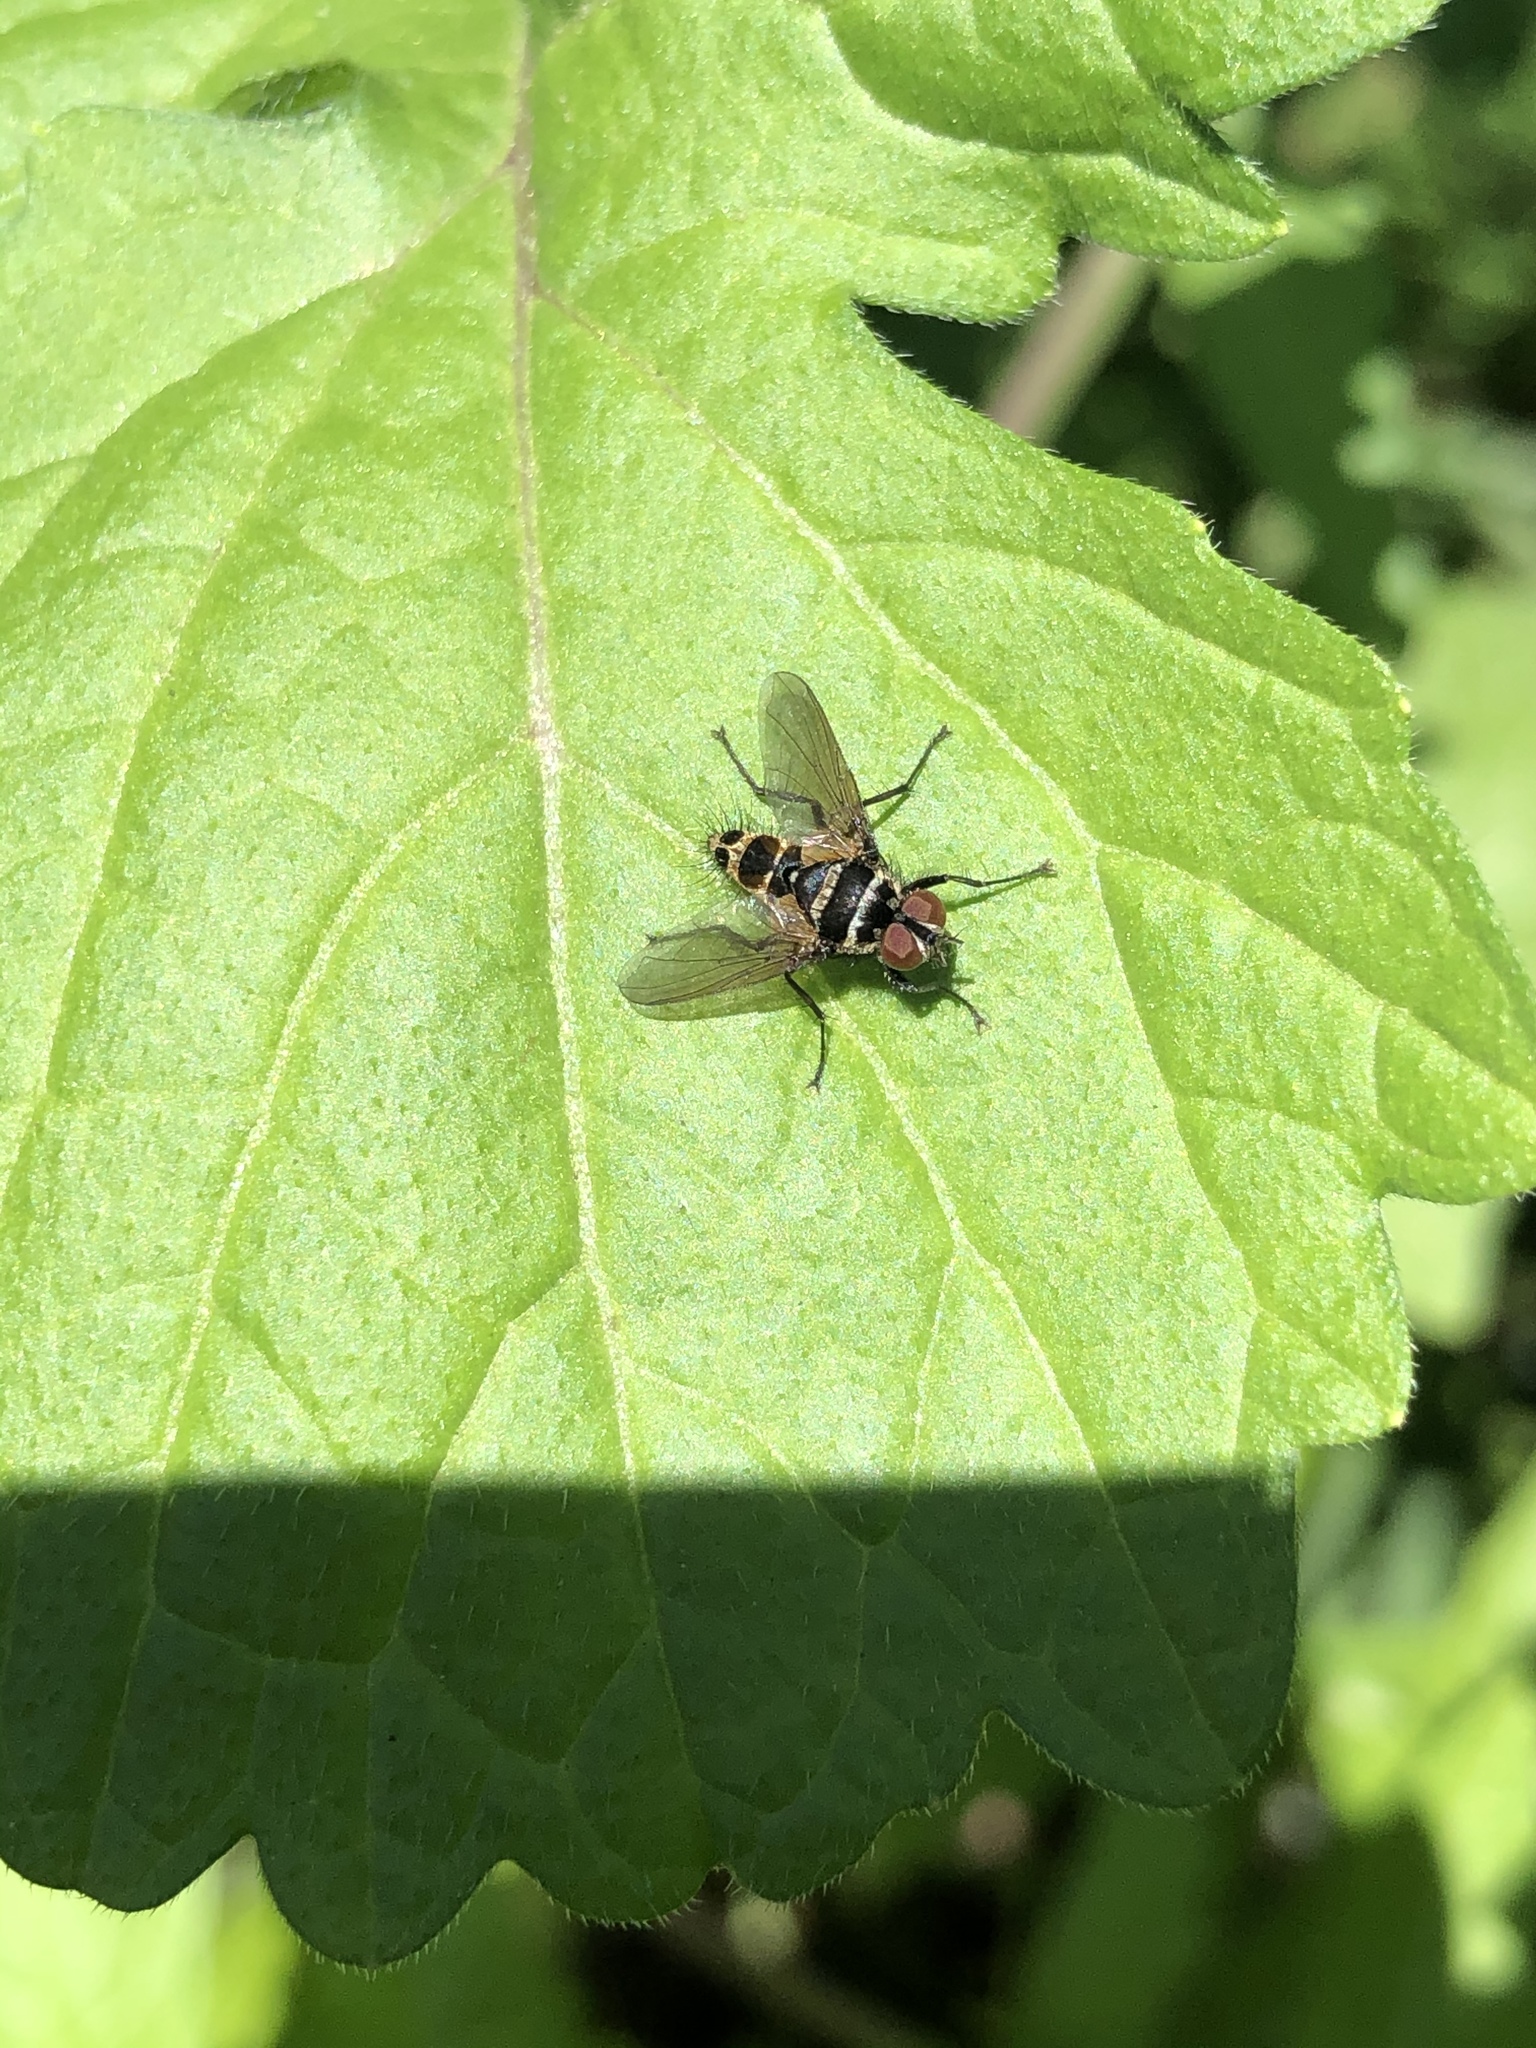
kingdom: Animalia
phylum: Arthropoda
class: Insecta
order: Diptera
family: Tachinidae
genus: Trigonospila
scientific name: Trigonospila brevifacies
